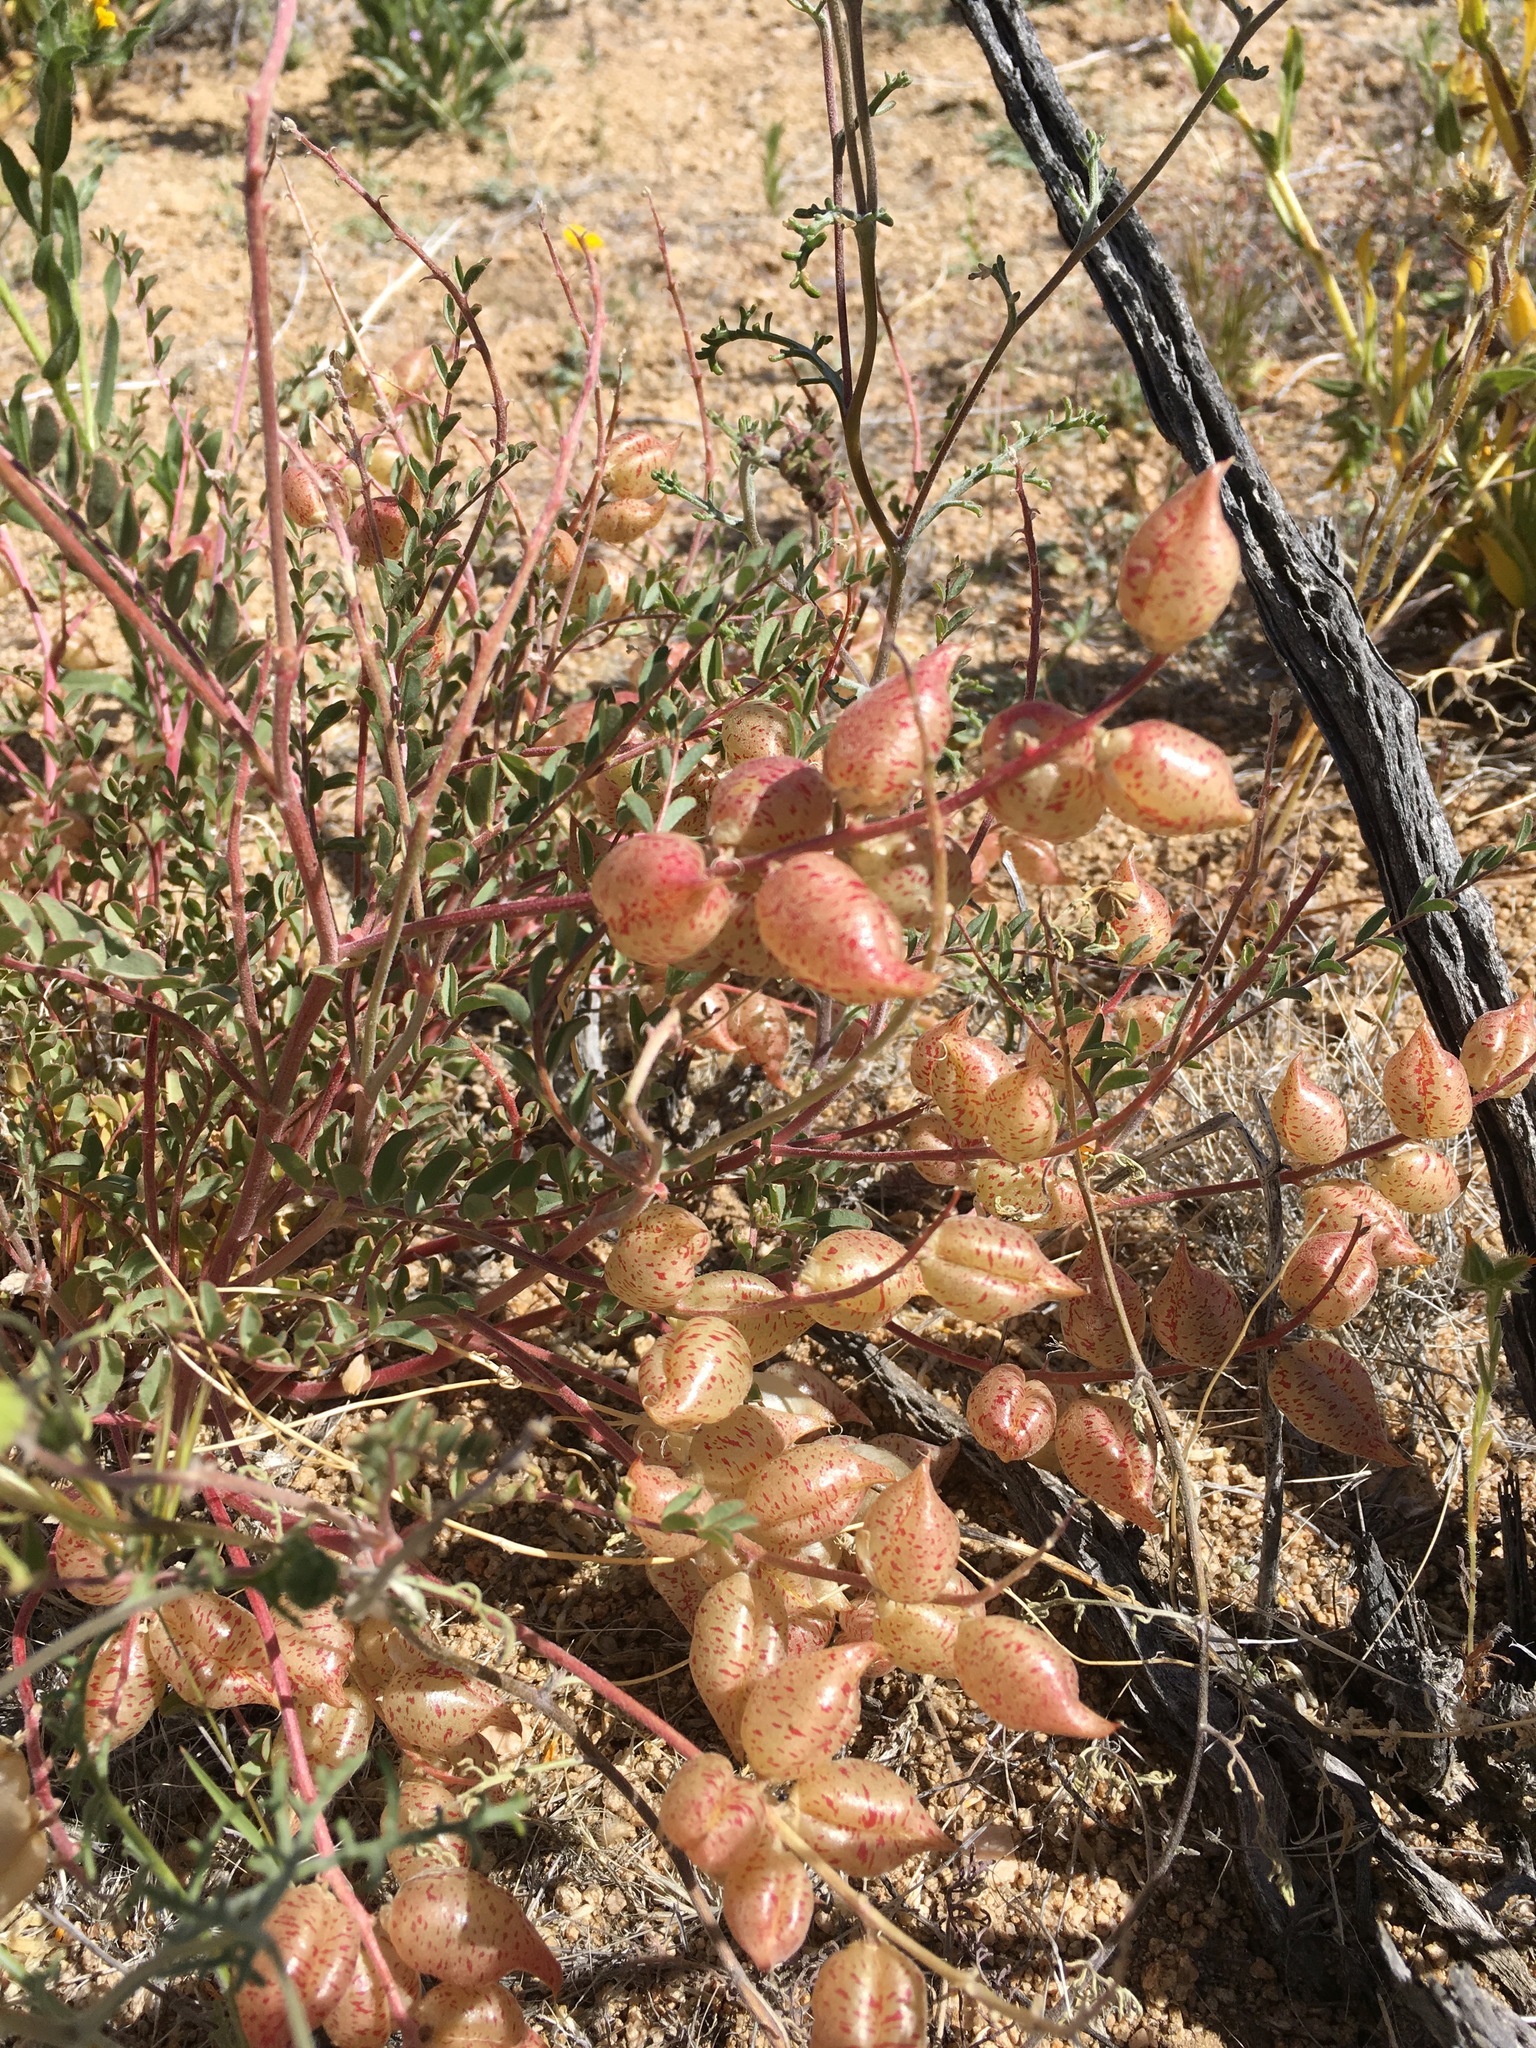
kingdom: Plantae
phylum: Tracheophyta
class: Magnoliopsida
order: Fabales
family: Fabaceae
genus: Astragalus
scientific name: Astragalus lentiginosus
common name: Freckled milkvetch
